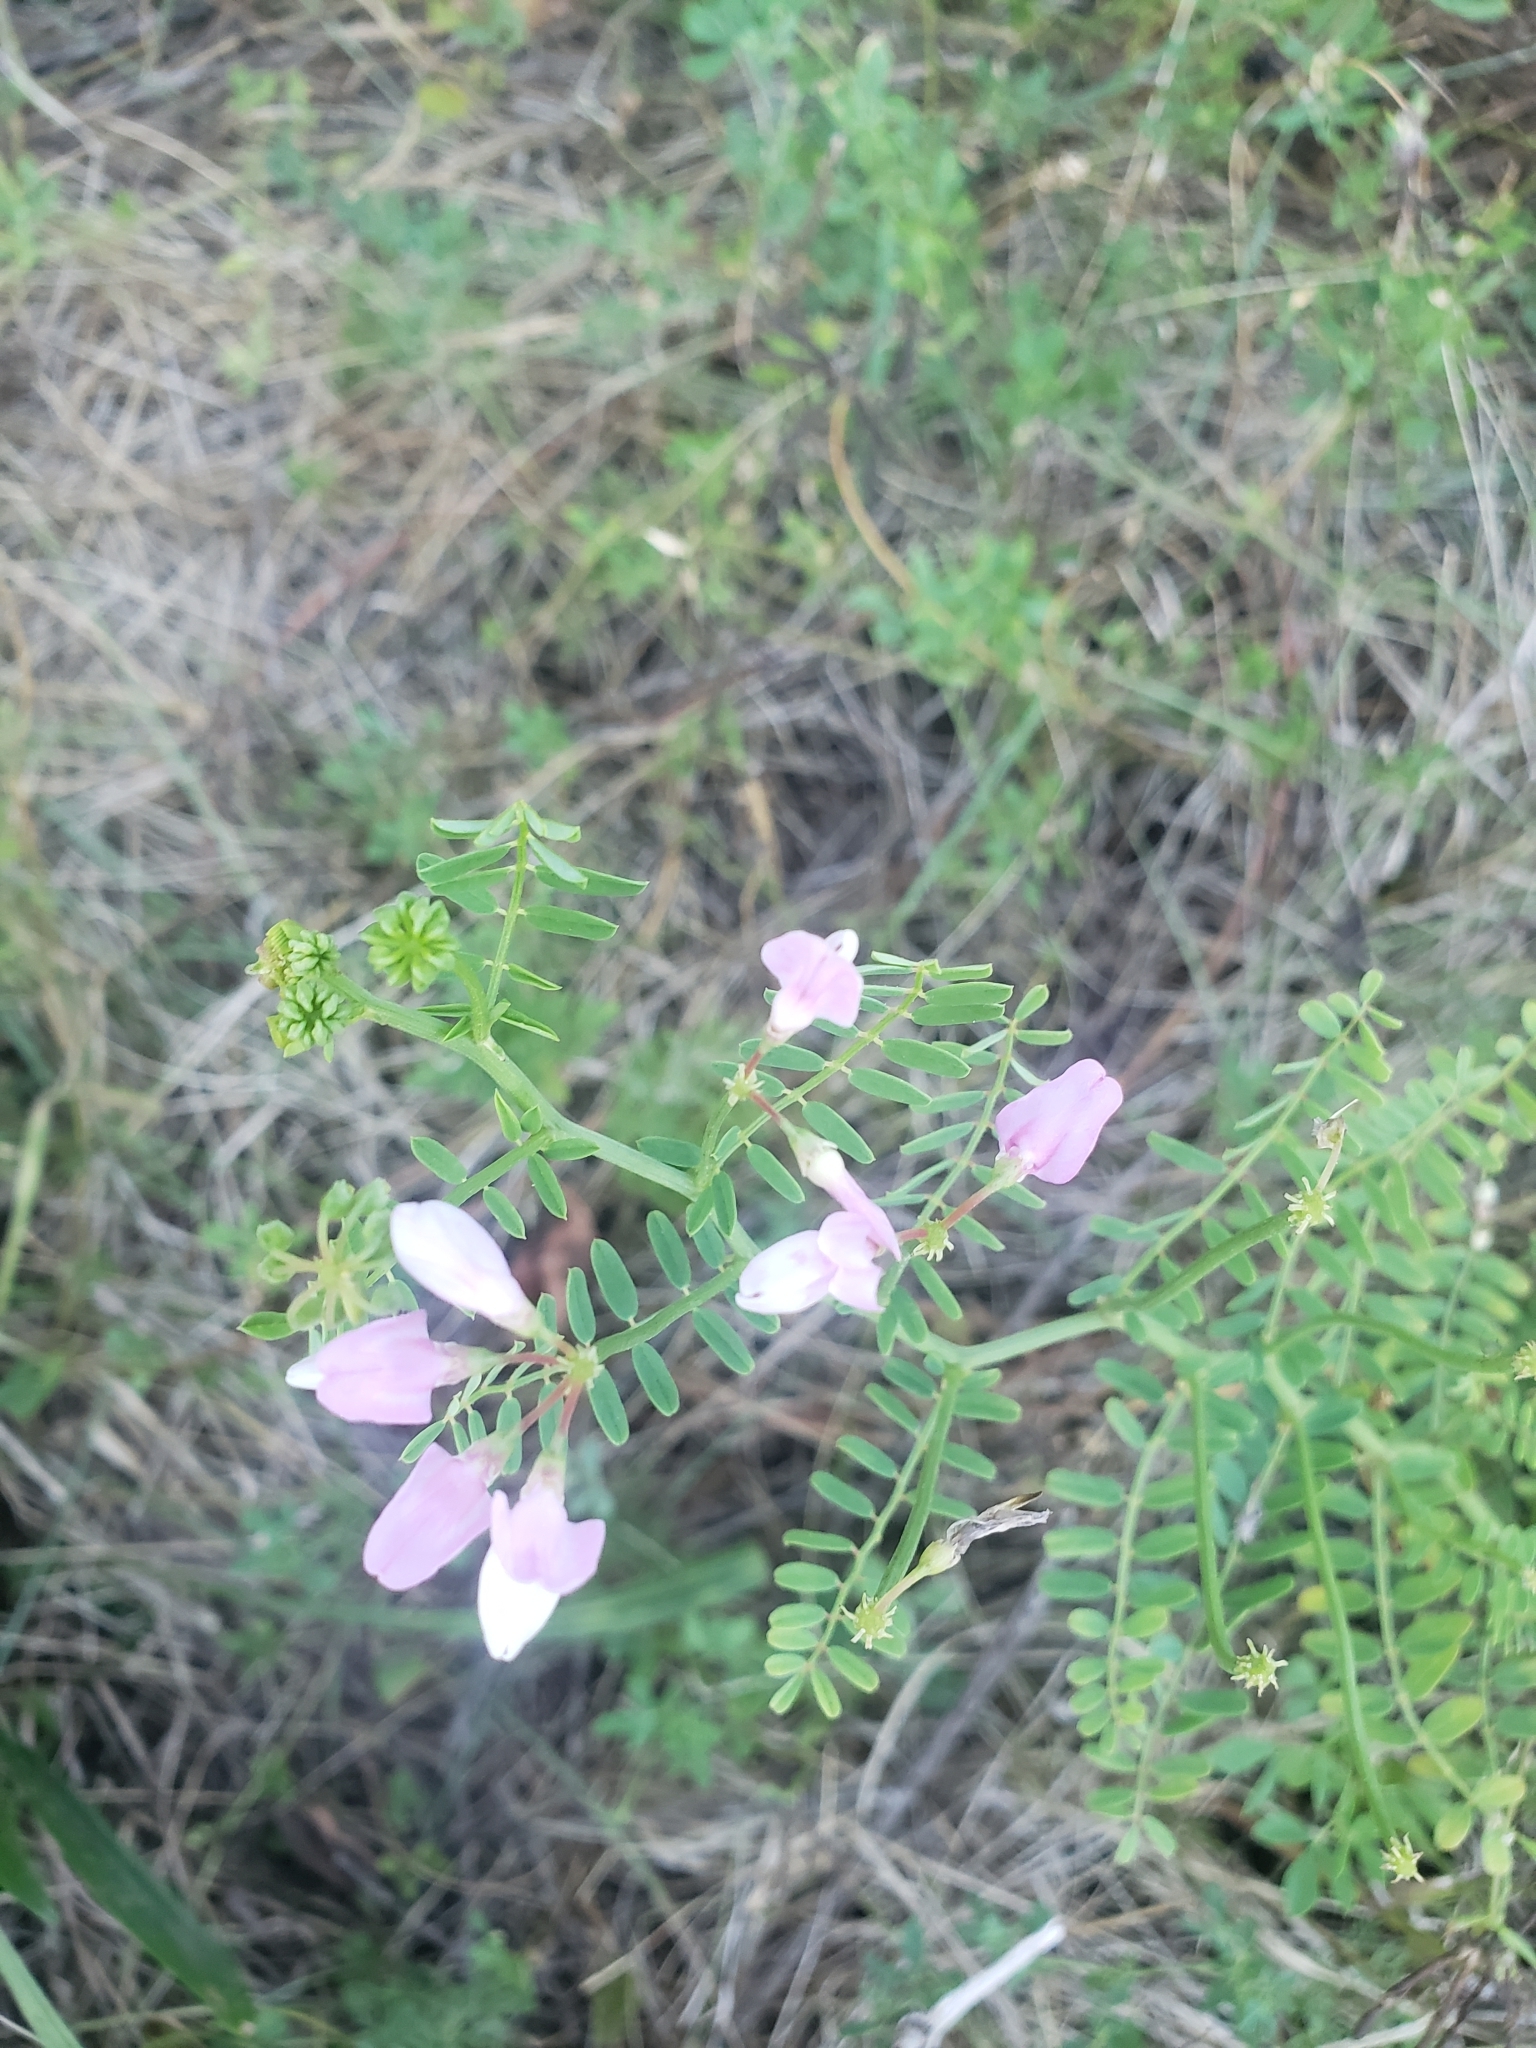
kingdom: Plantae
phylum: Tracheophyta
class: Magnoliopsida
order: Fabales
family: Fabaceae
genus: Coronilla
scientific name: Coronilla varia
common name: Crownvetch
